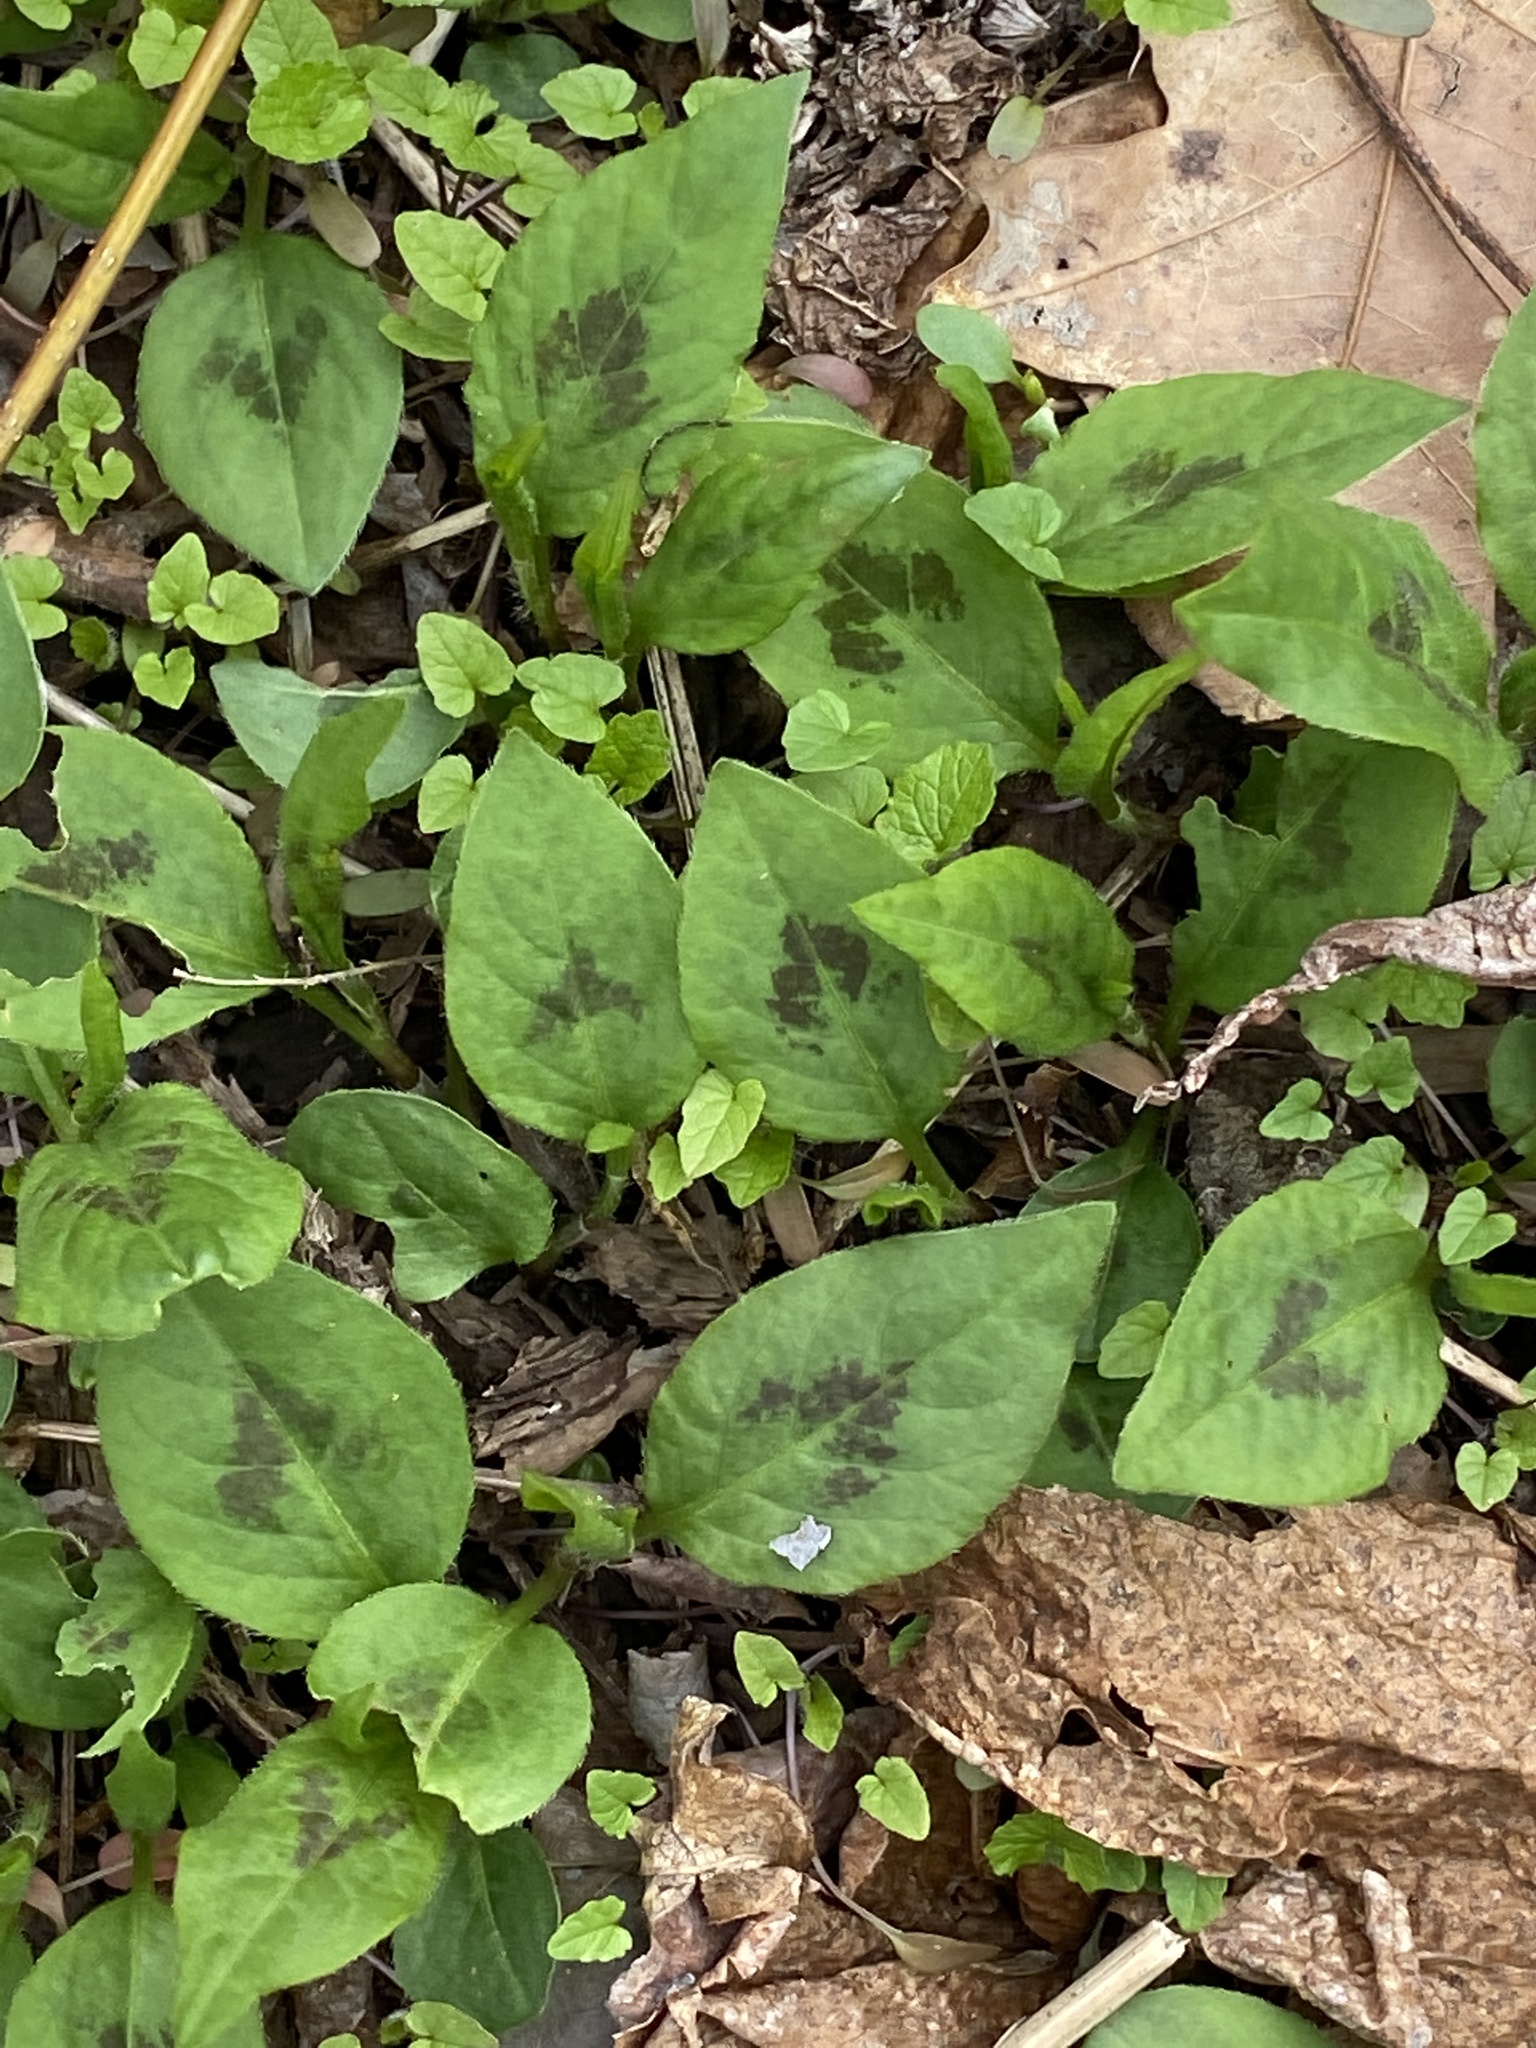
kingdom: Plantae
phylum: Tracheophyta
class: Magnoliopsida
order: Caryophyllales
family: Polygonaceae
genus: Persicaria
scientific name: Persicaria virginiana
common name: Jumpseed
